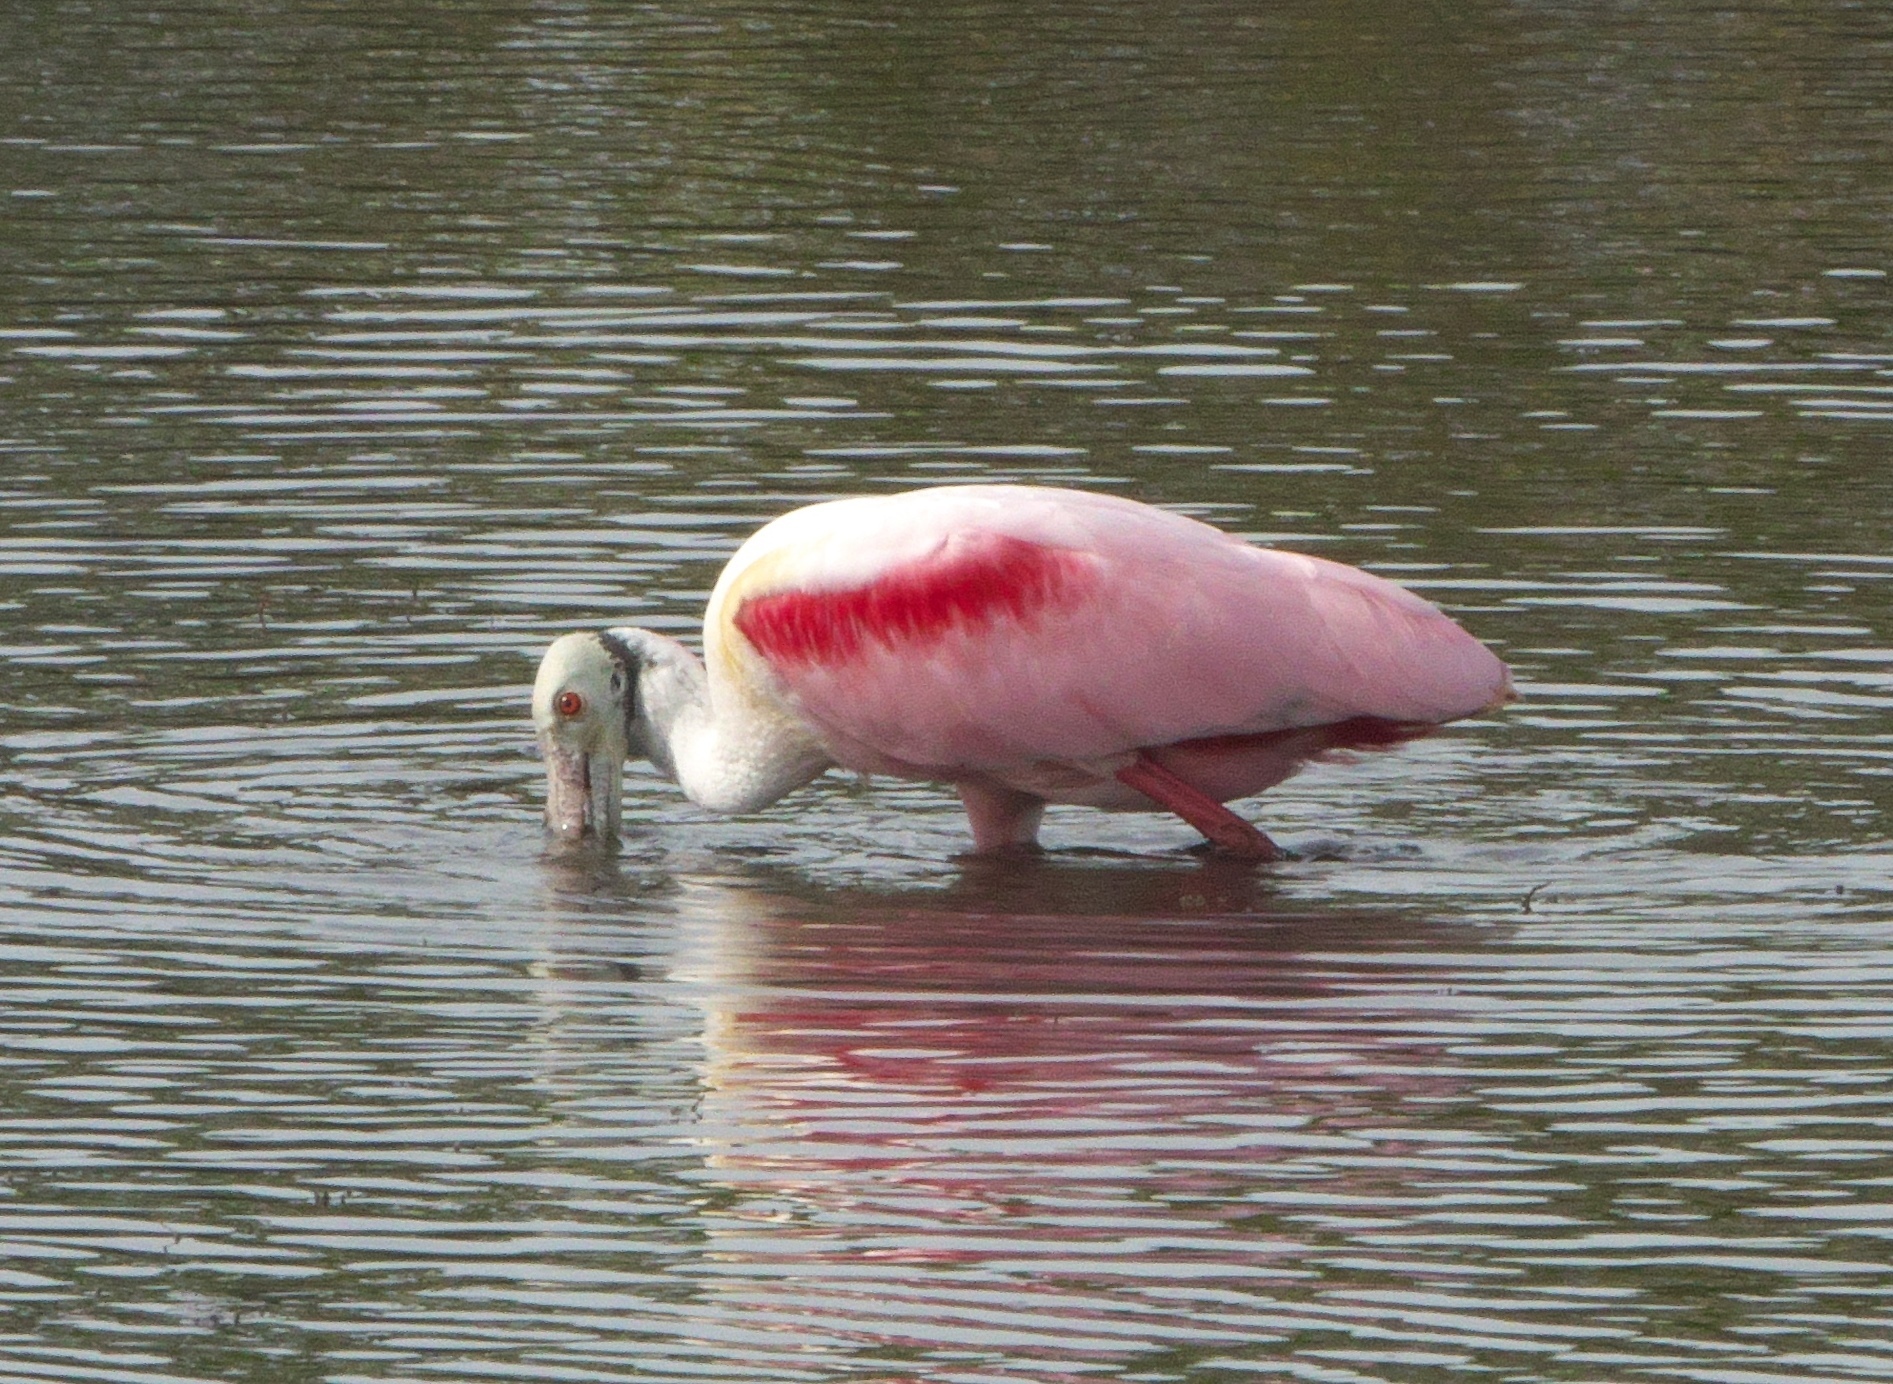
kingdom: Animalia
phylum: Chordata
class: Aves
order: Pelecaniformes
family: Threskiornithidae
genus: Platalea
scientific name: Platalea ajaja
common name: Roseate spoonbill
